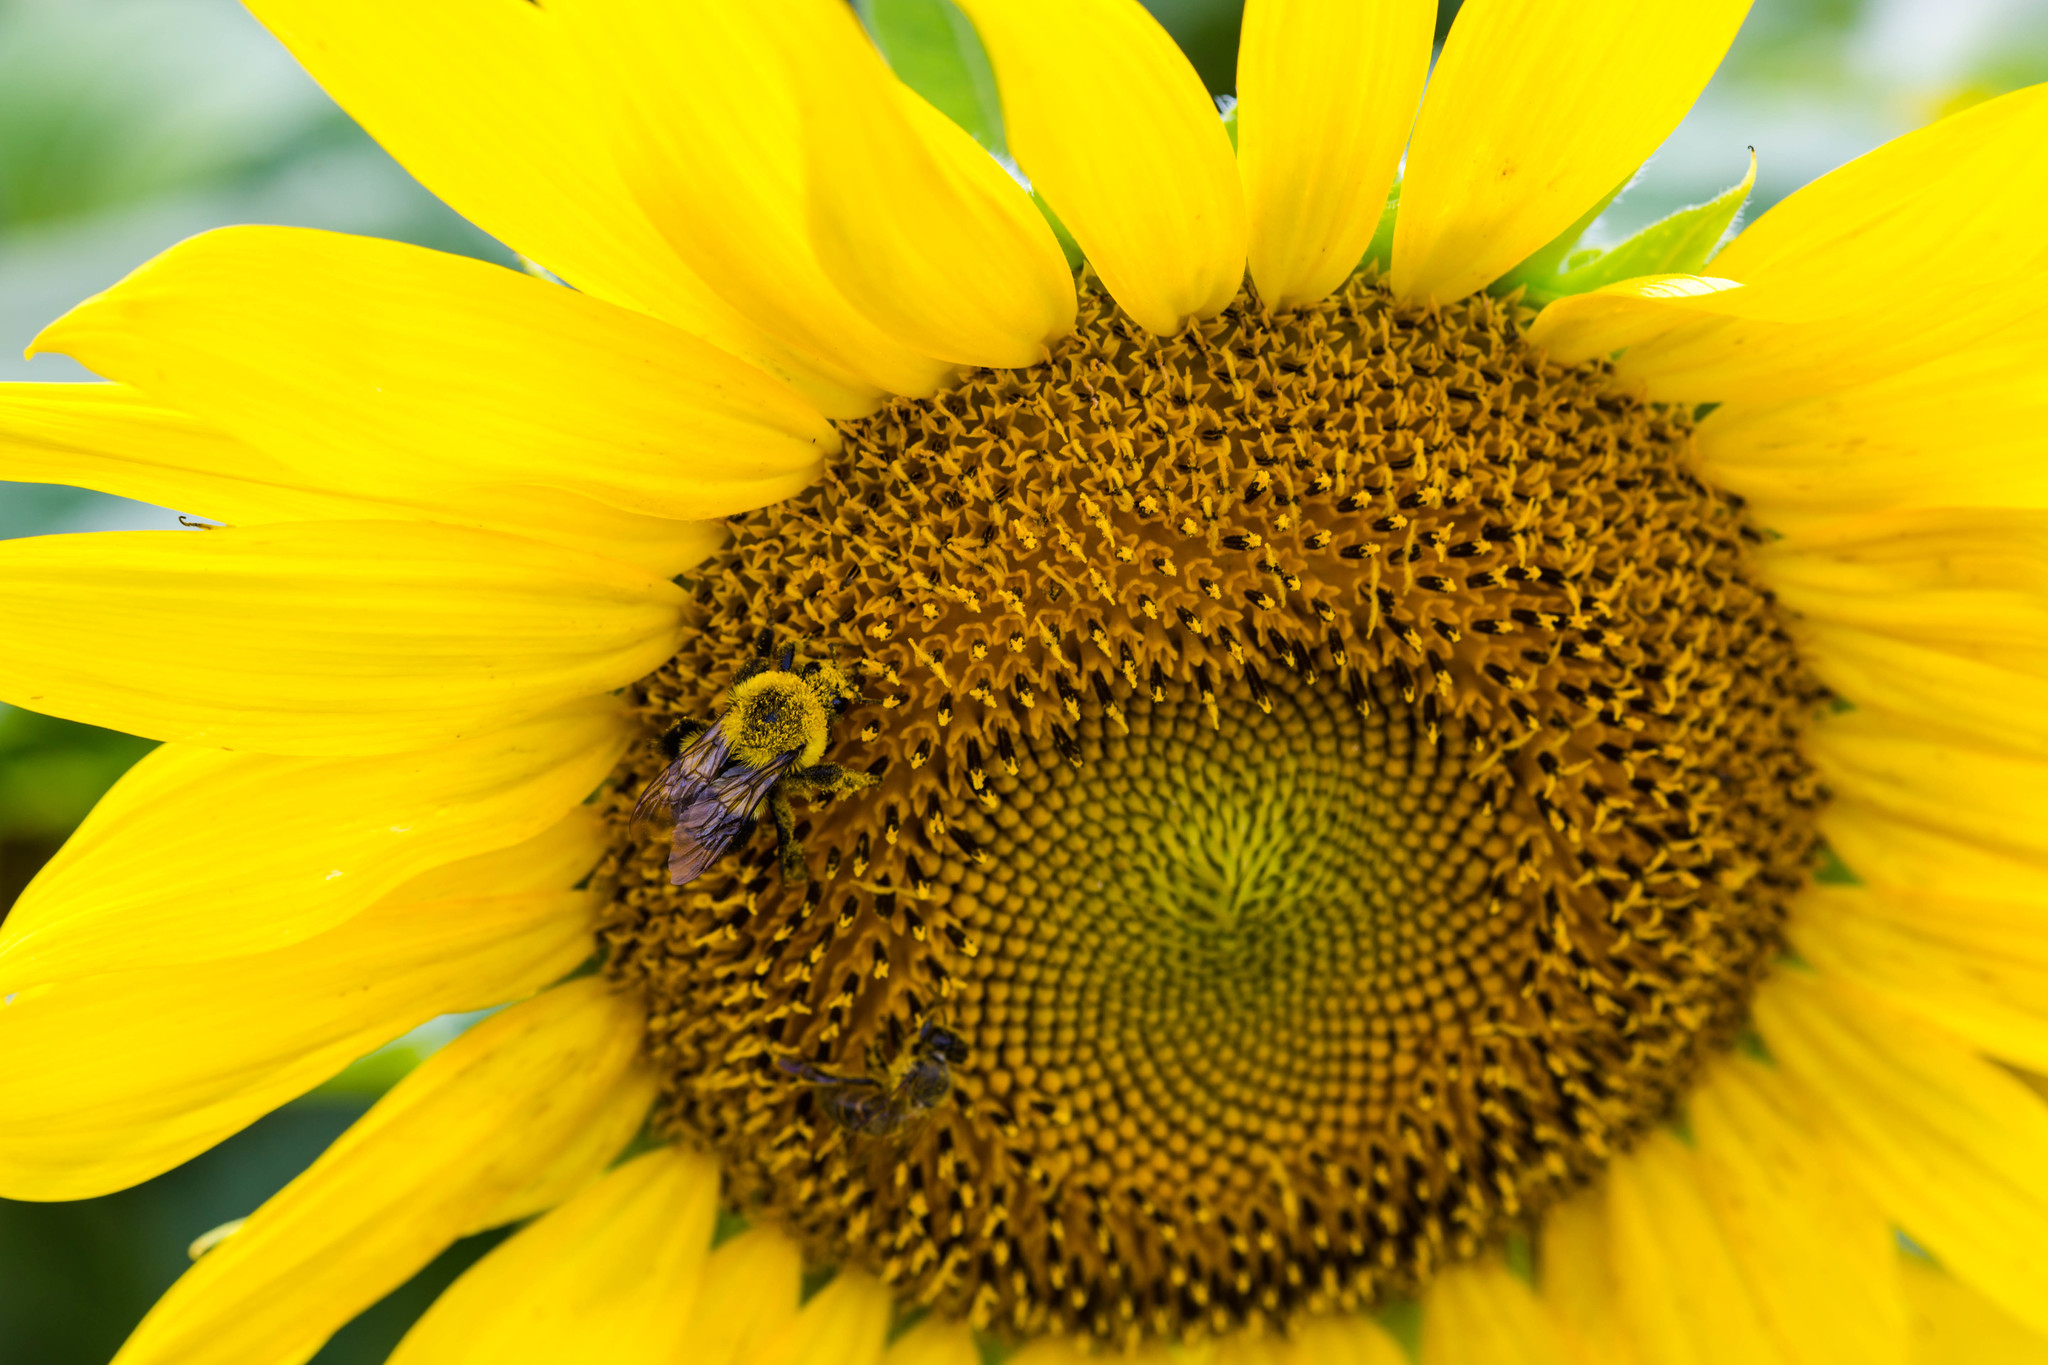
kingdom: Animalia
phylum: Arthropoda
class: Insecta
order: Hymenoptera
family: Apidae
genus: Bombus
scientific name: Bombus impatiens
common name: Common eastern bumble bee
